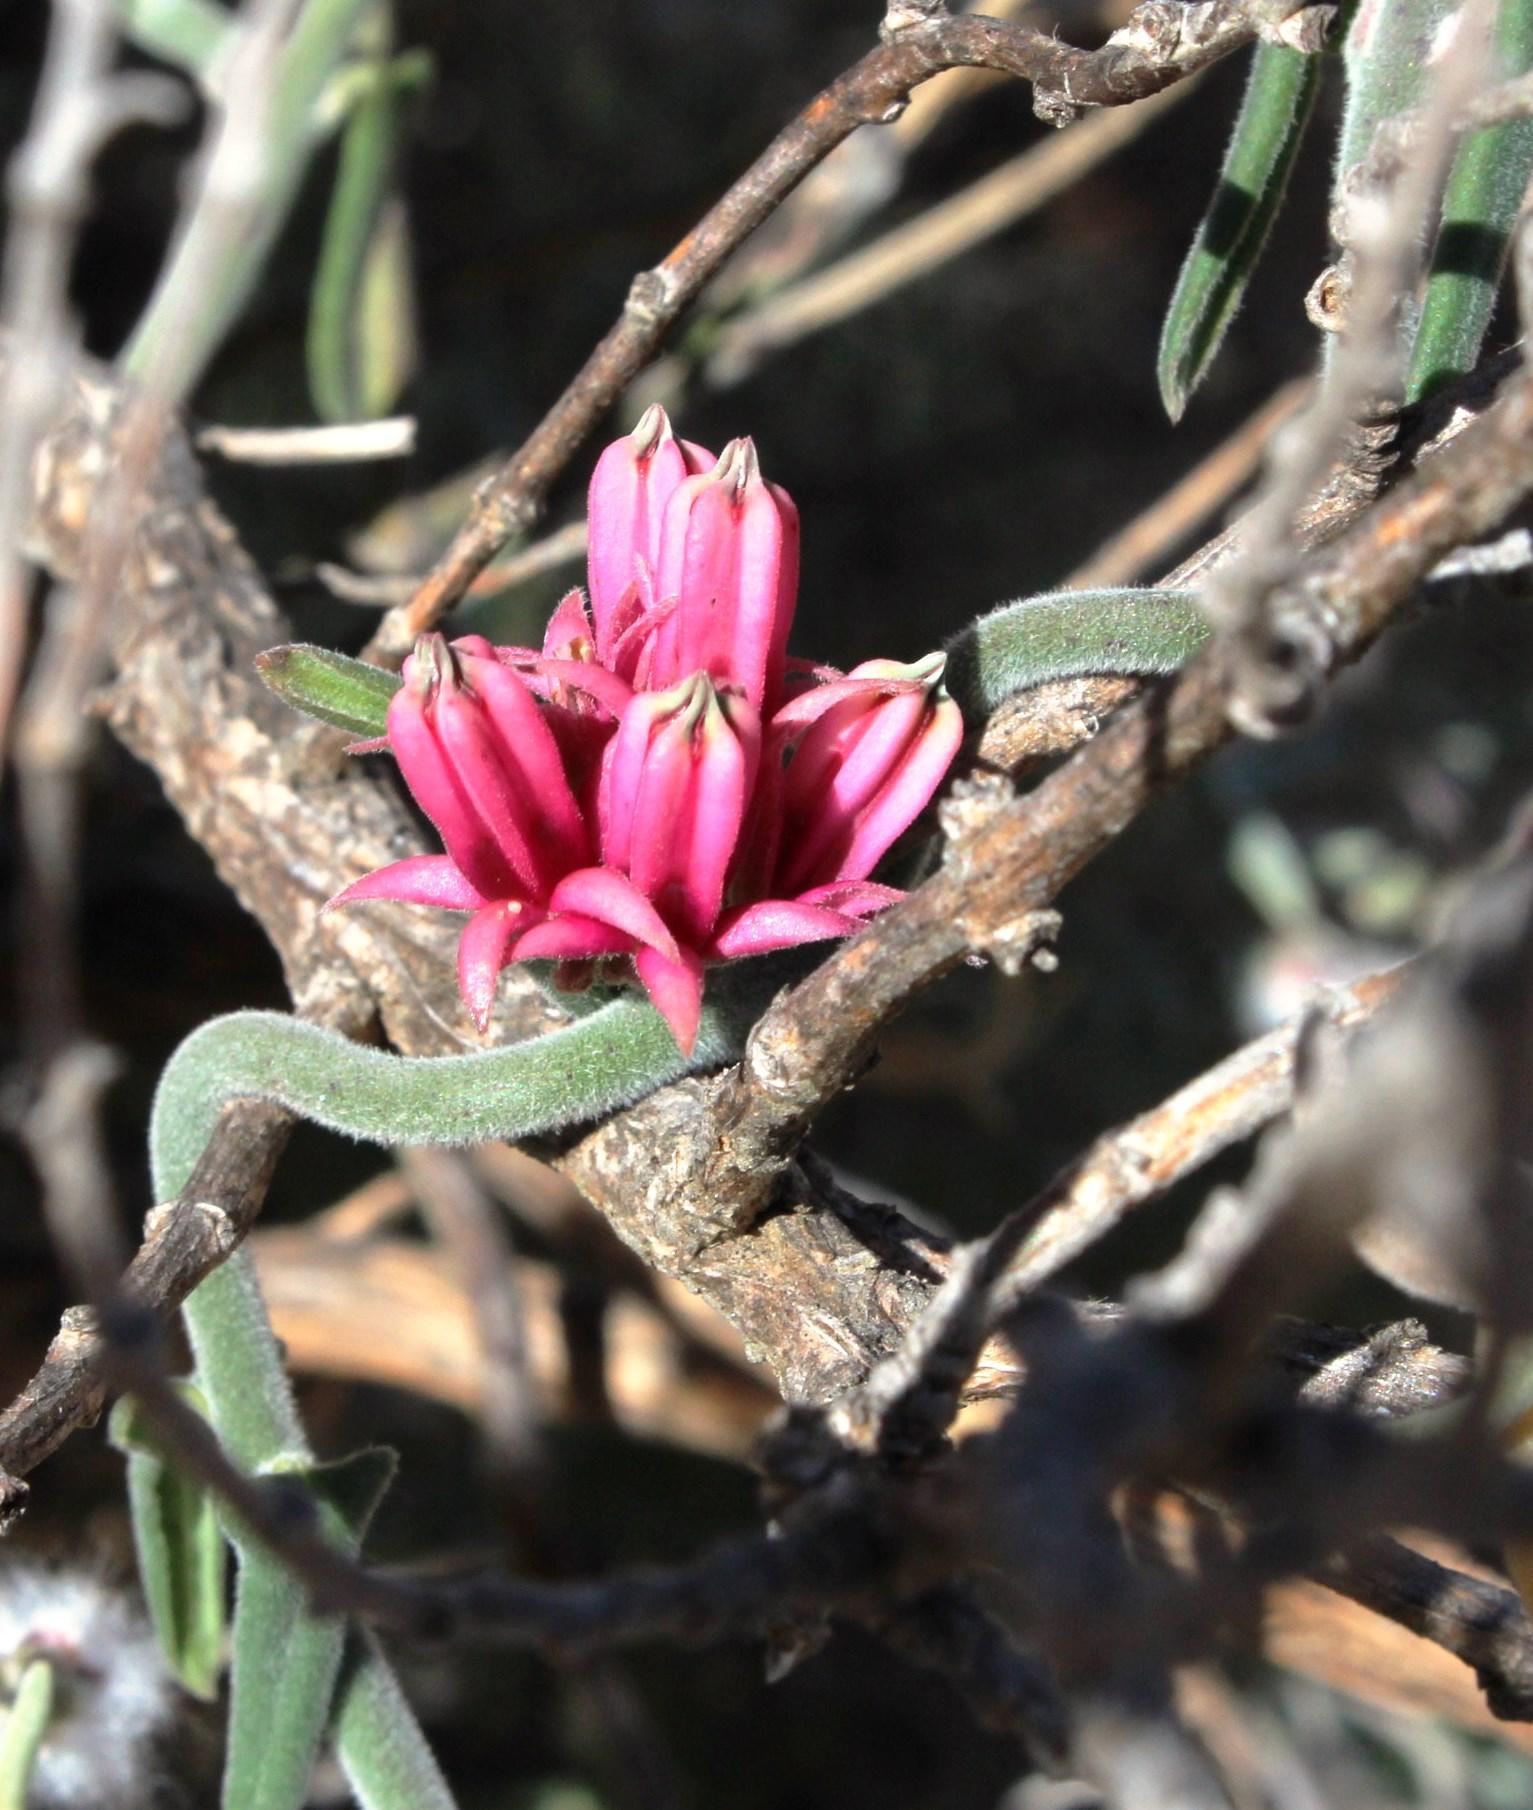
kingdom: Plantae
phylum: Tracheophyta
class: Magnoliopsida
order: Gentianales
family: Apocynaceae
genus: Microloma
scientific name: Microloma sagittatum
